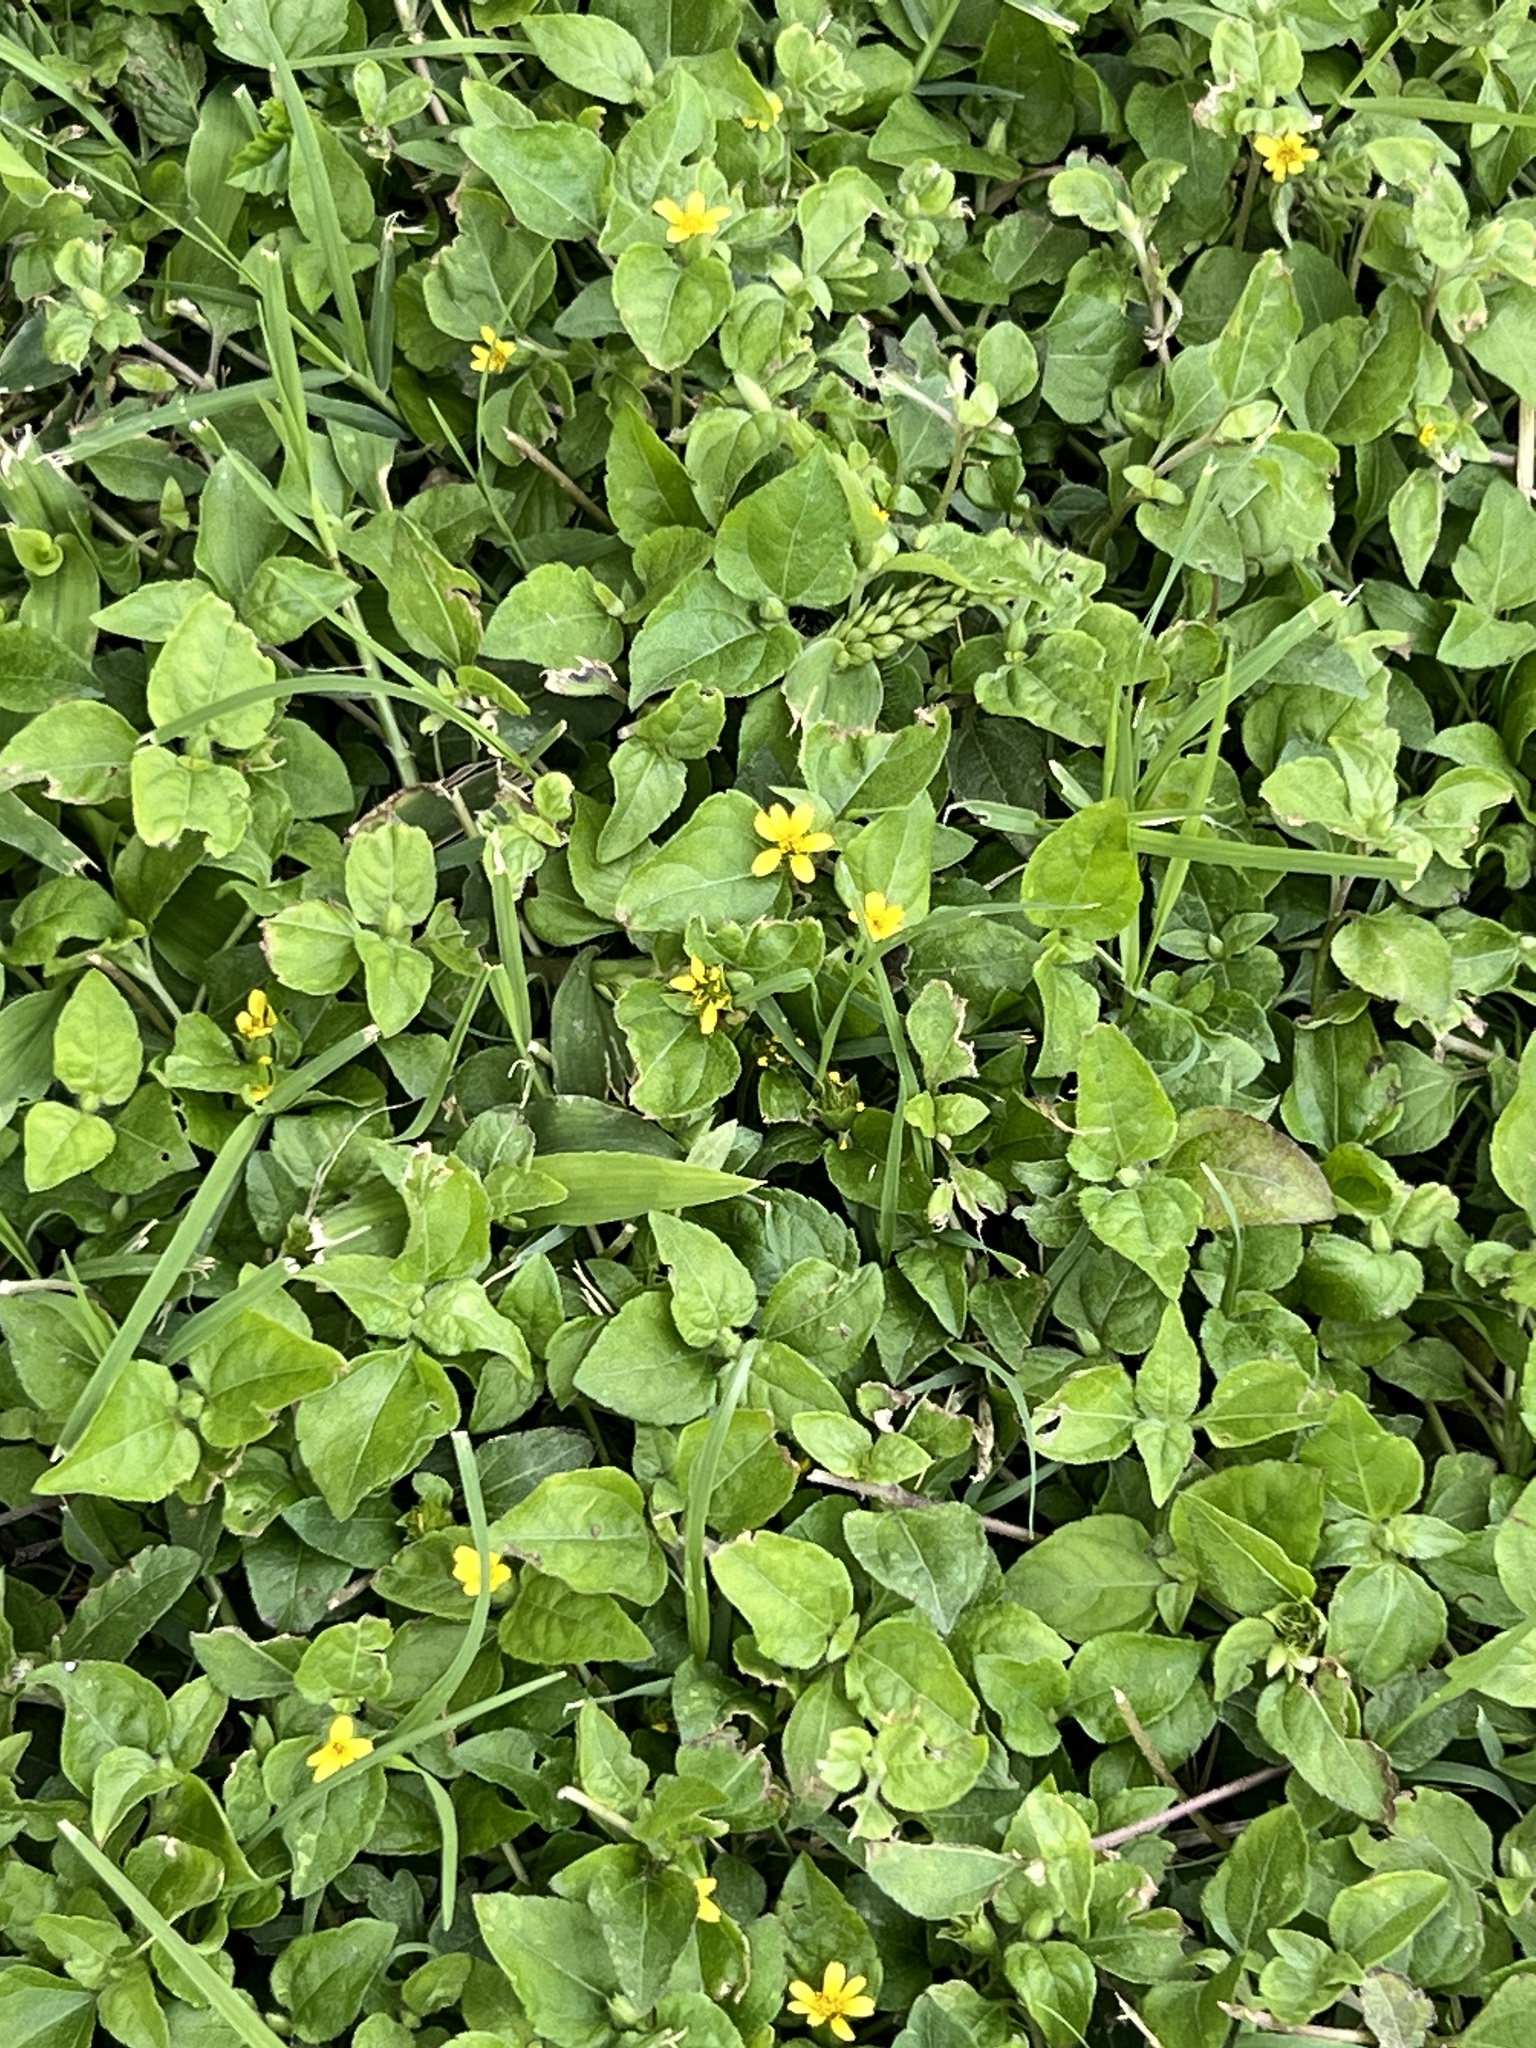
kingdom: Plantae
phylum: Tracheophyta
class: Magnoliopsida
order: Asterales
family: Asteraceae
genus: Calyptocarpus
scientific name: Calyptocarpus vialis
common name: Straggler daisy
